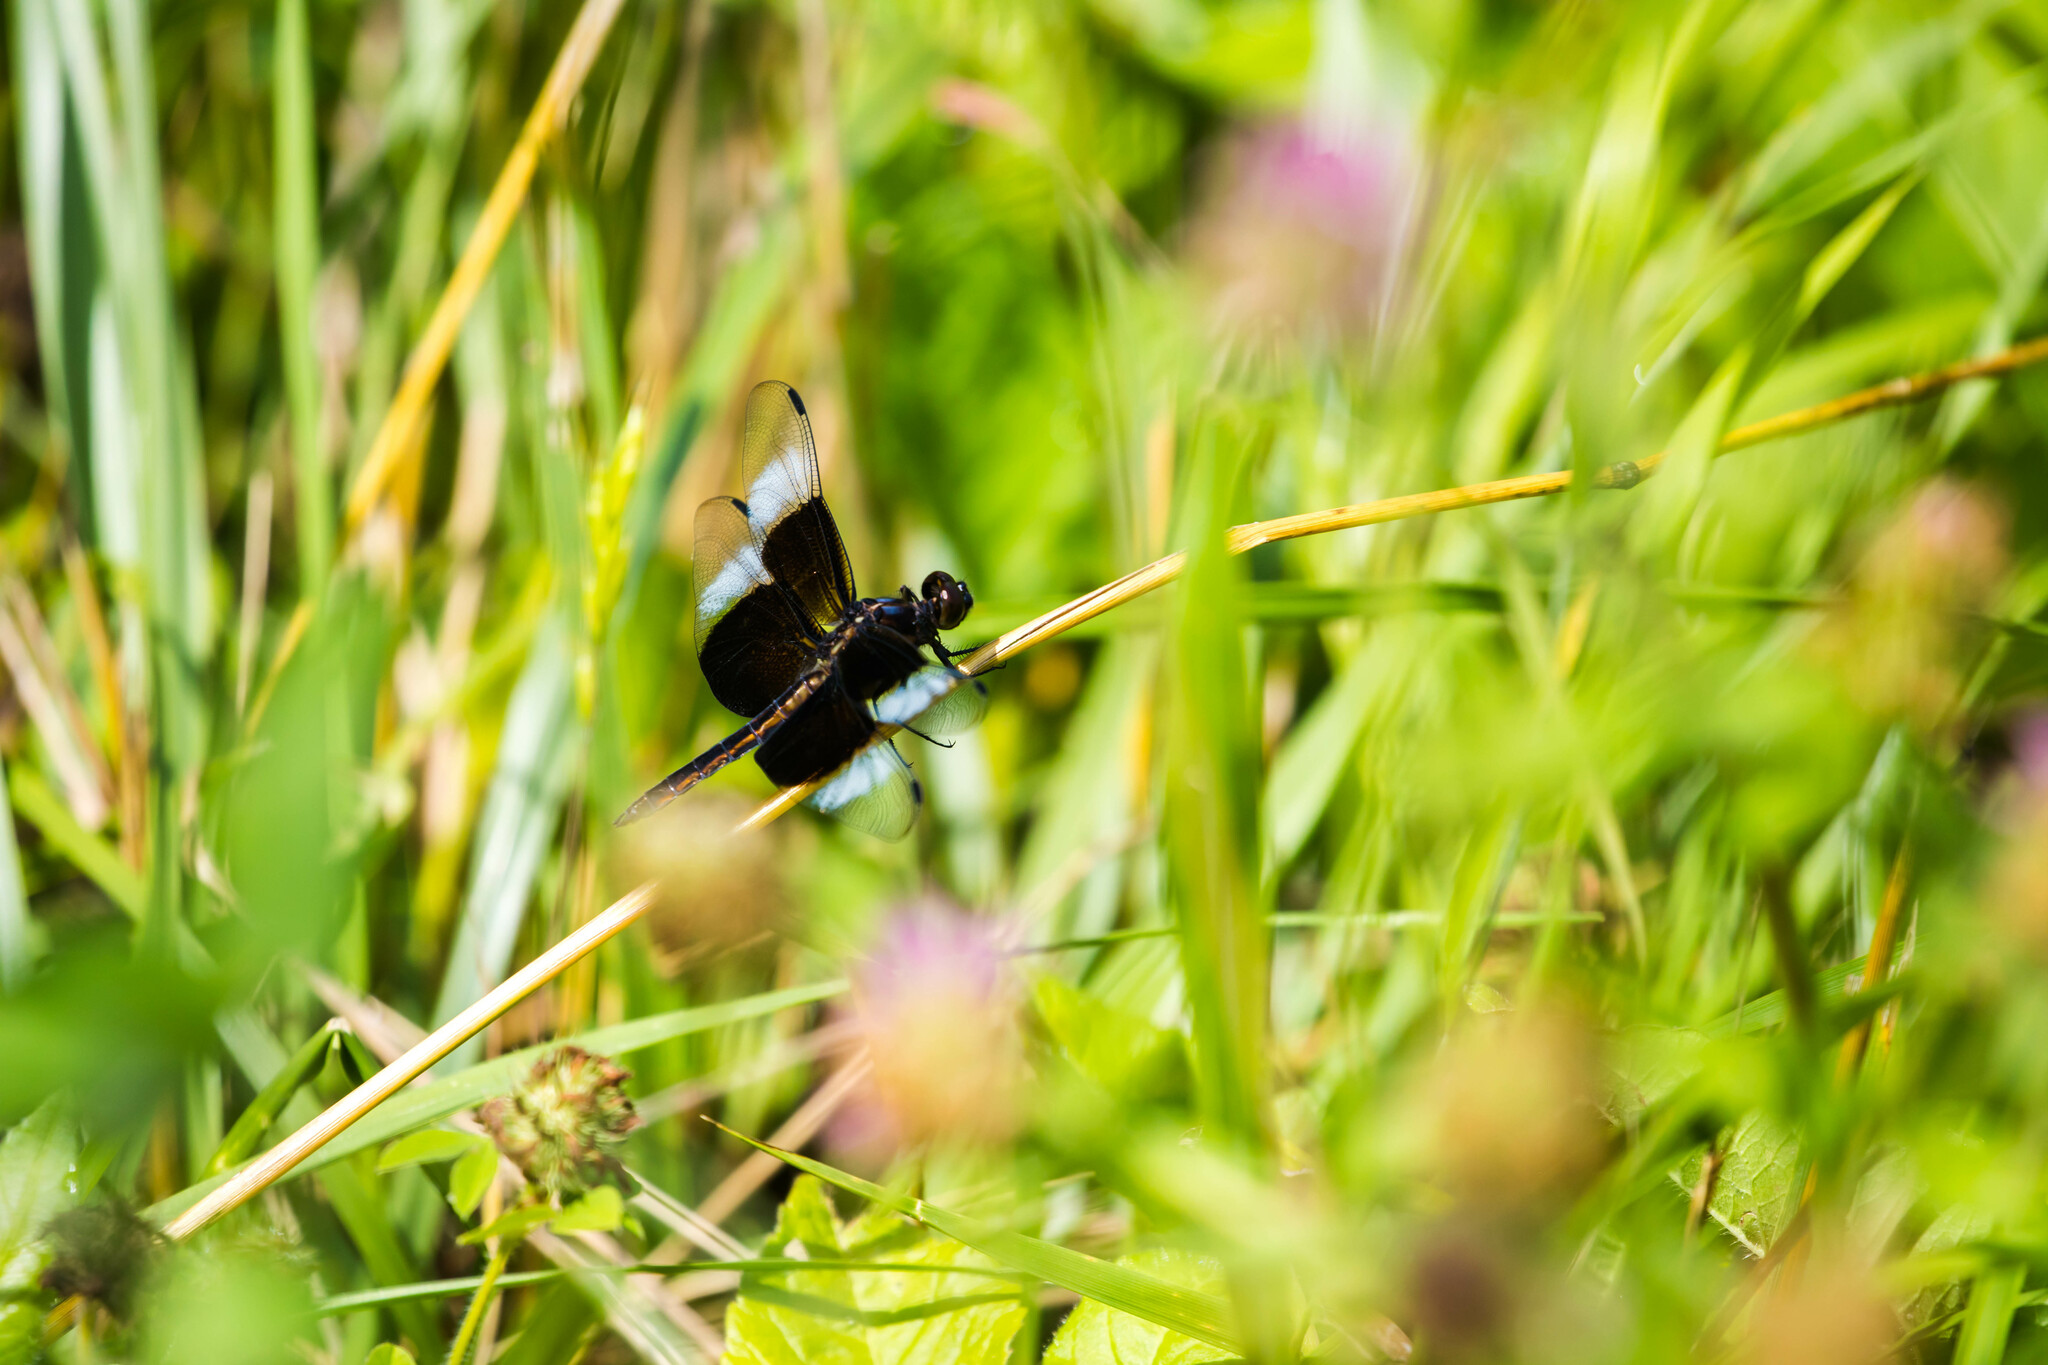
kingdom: Animalia
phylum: Arthropoda
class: Insecta
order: Odonata
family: Libellulidae
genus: Libellula
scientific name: Libellula luctuosa
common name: Widow skimmer
